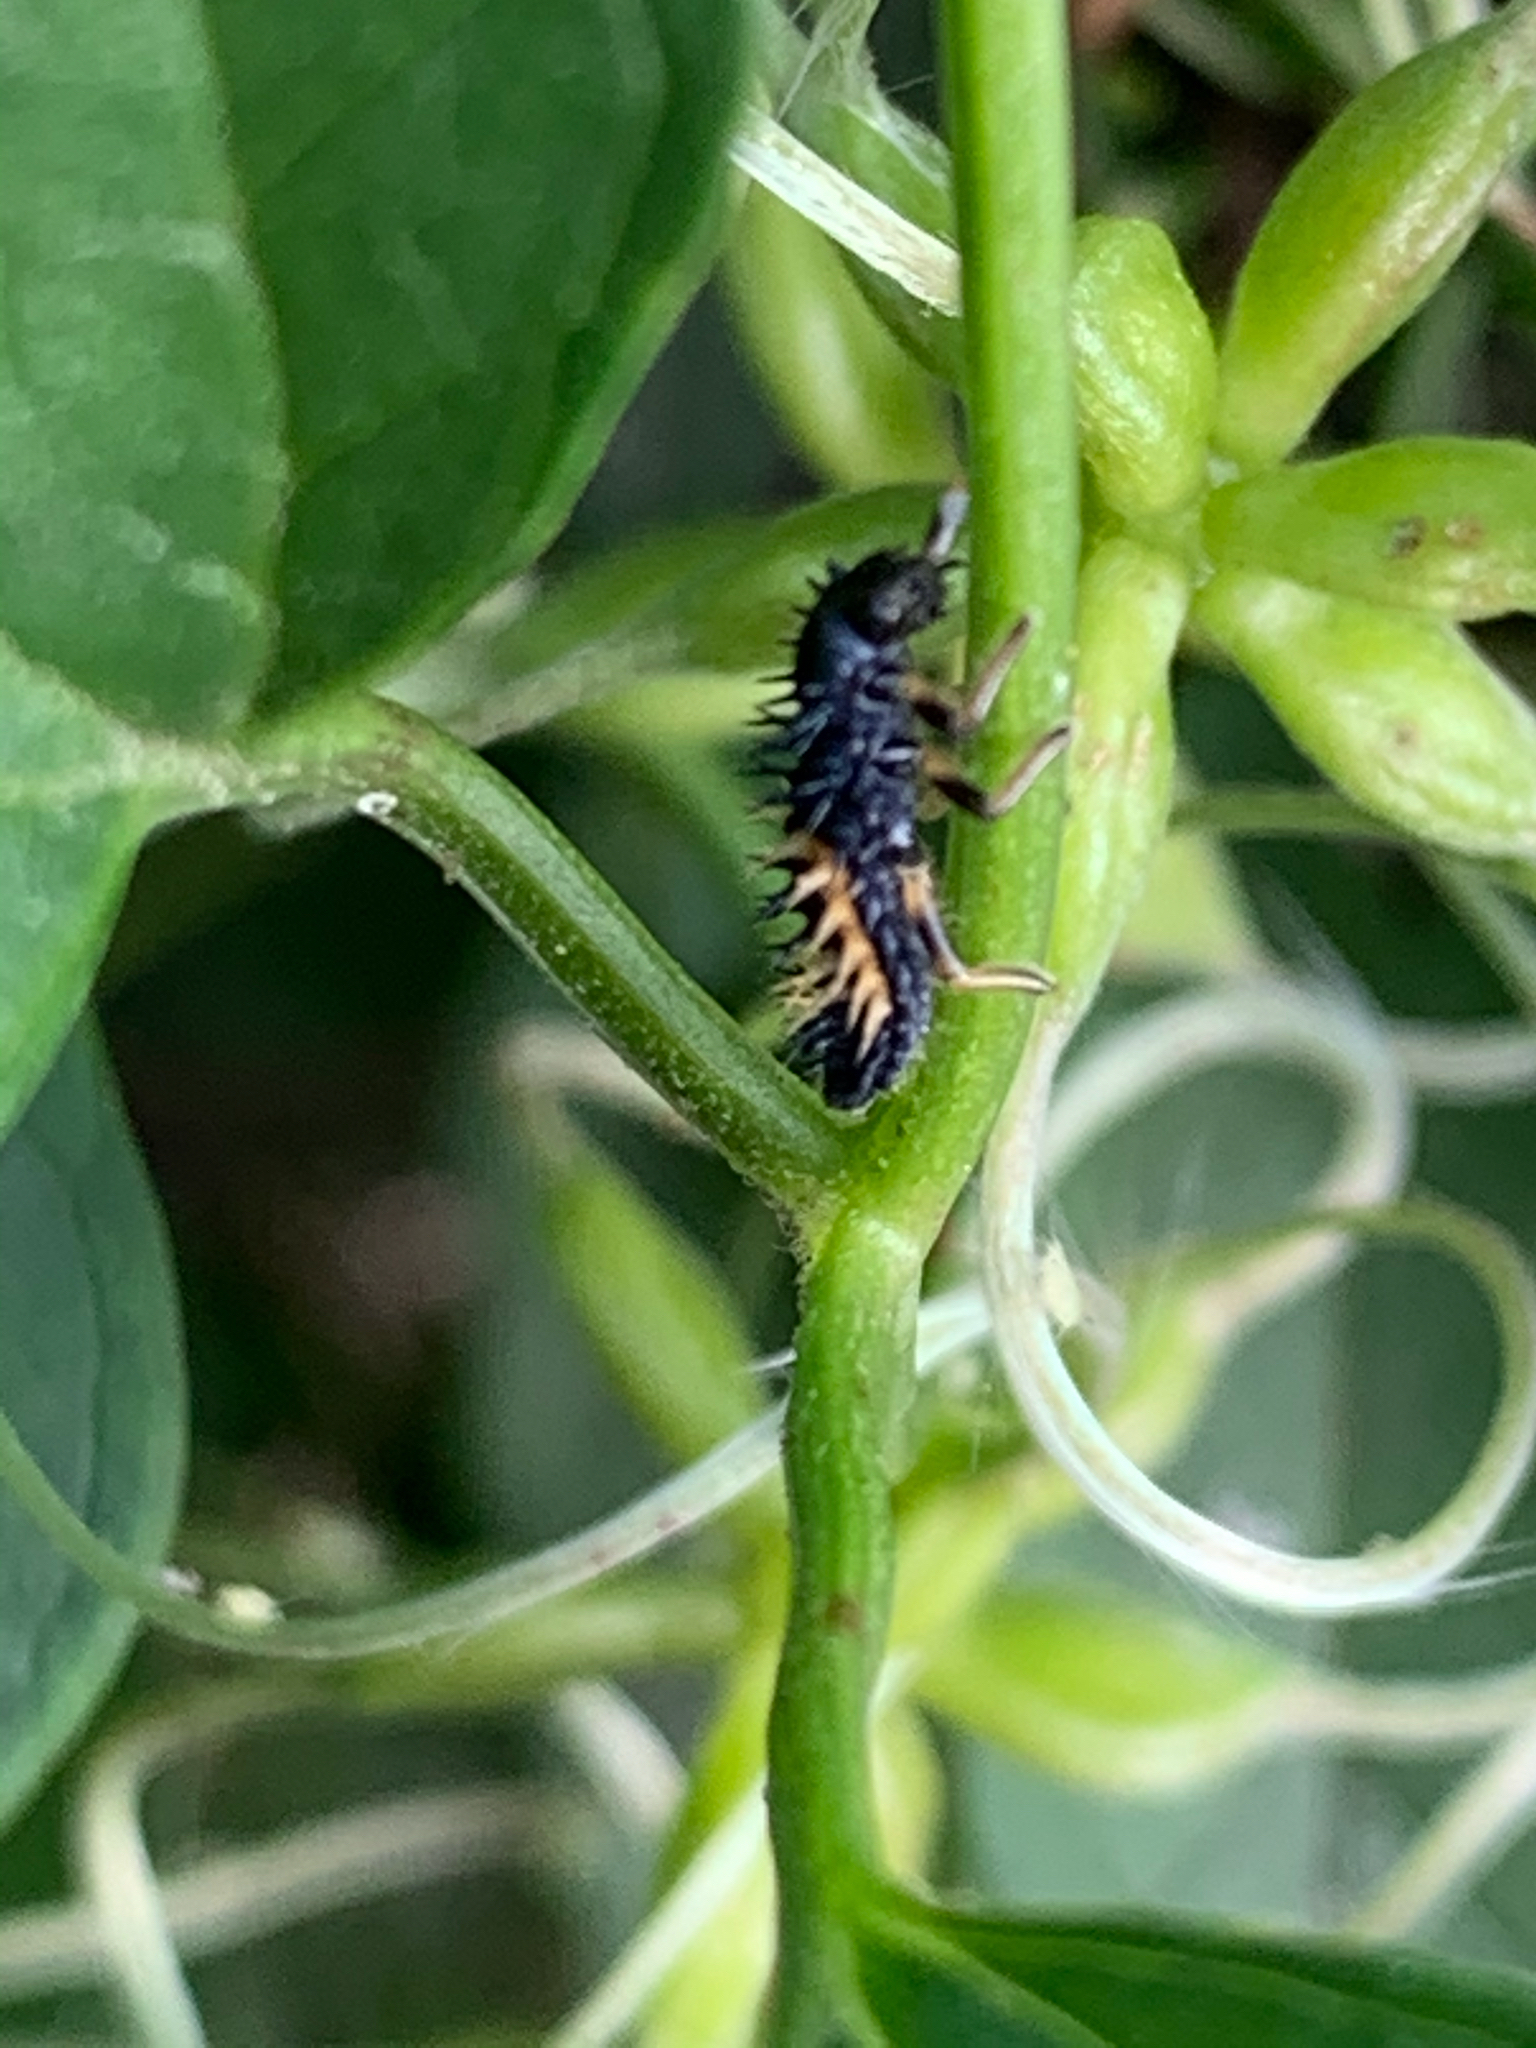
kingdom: Animalia
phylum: Arthropoda
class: Insecta
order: Coleoptera
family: Coccinellidae
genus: Harmonia
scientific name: Harmonia axyridis
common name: Harlequin ladybird
